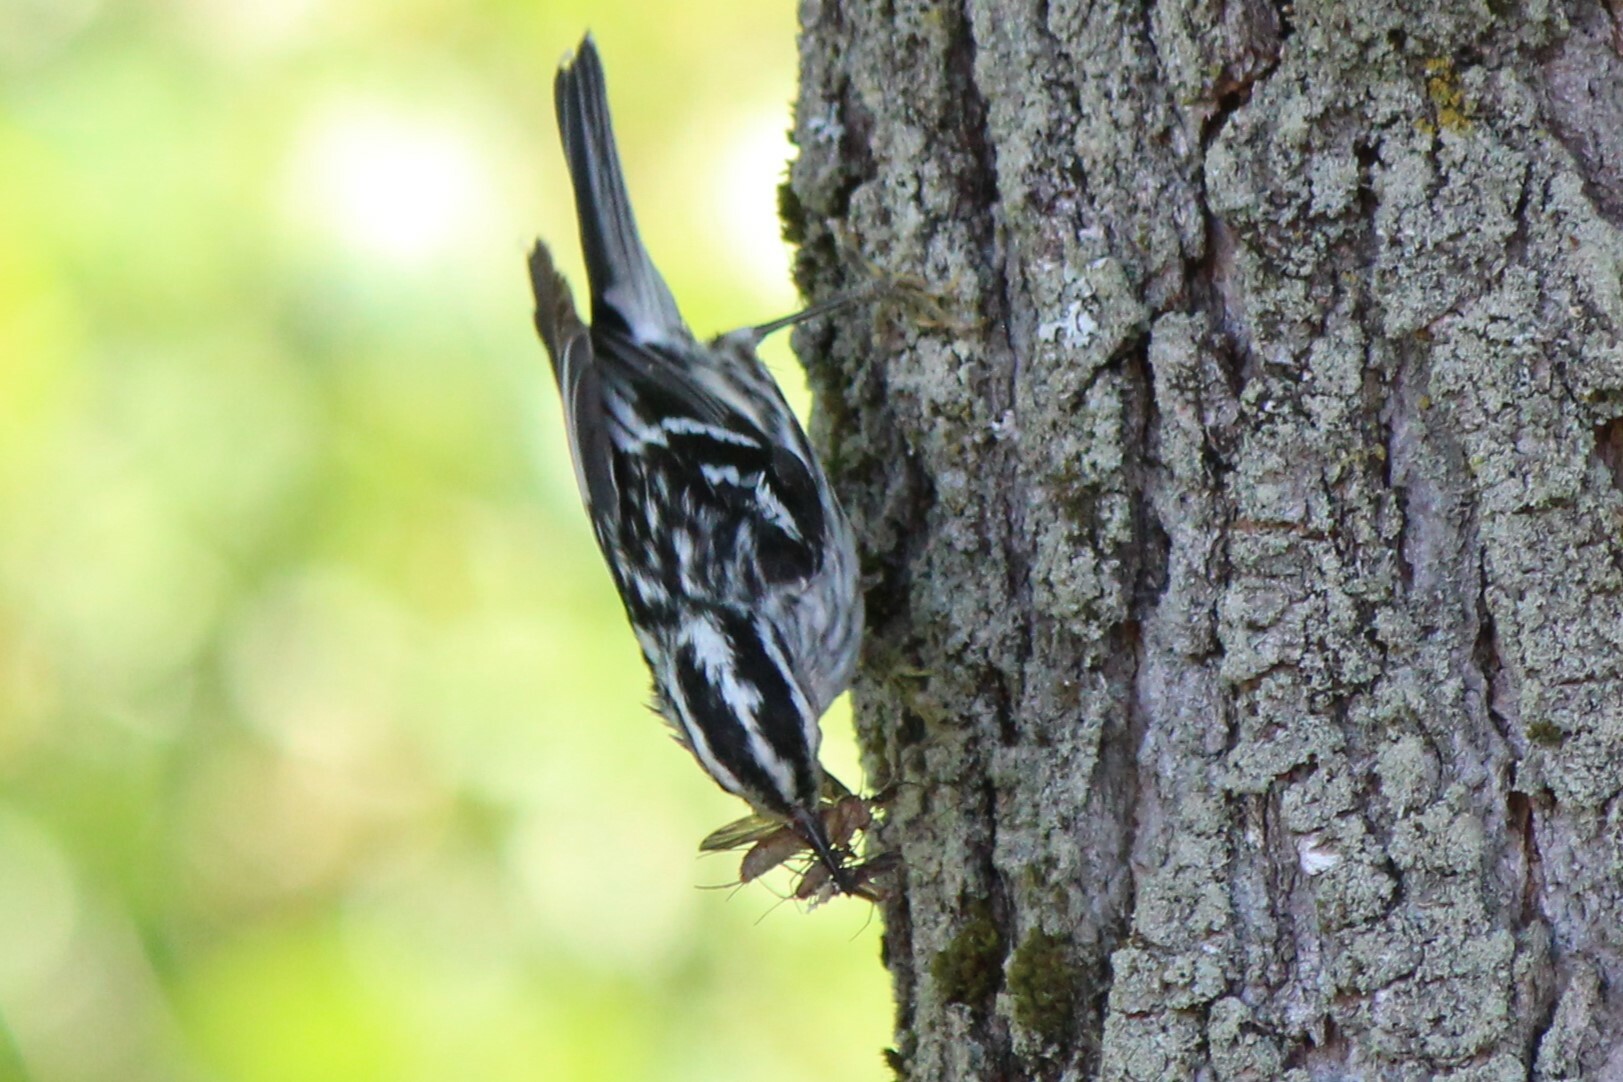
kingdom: Animalia
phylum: Chordata
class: Aves
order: Passeriformes
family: Parulidae
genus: Mniotilta
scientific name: Mniotilta varia
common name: Black-and-white warbler
